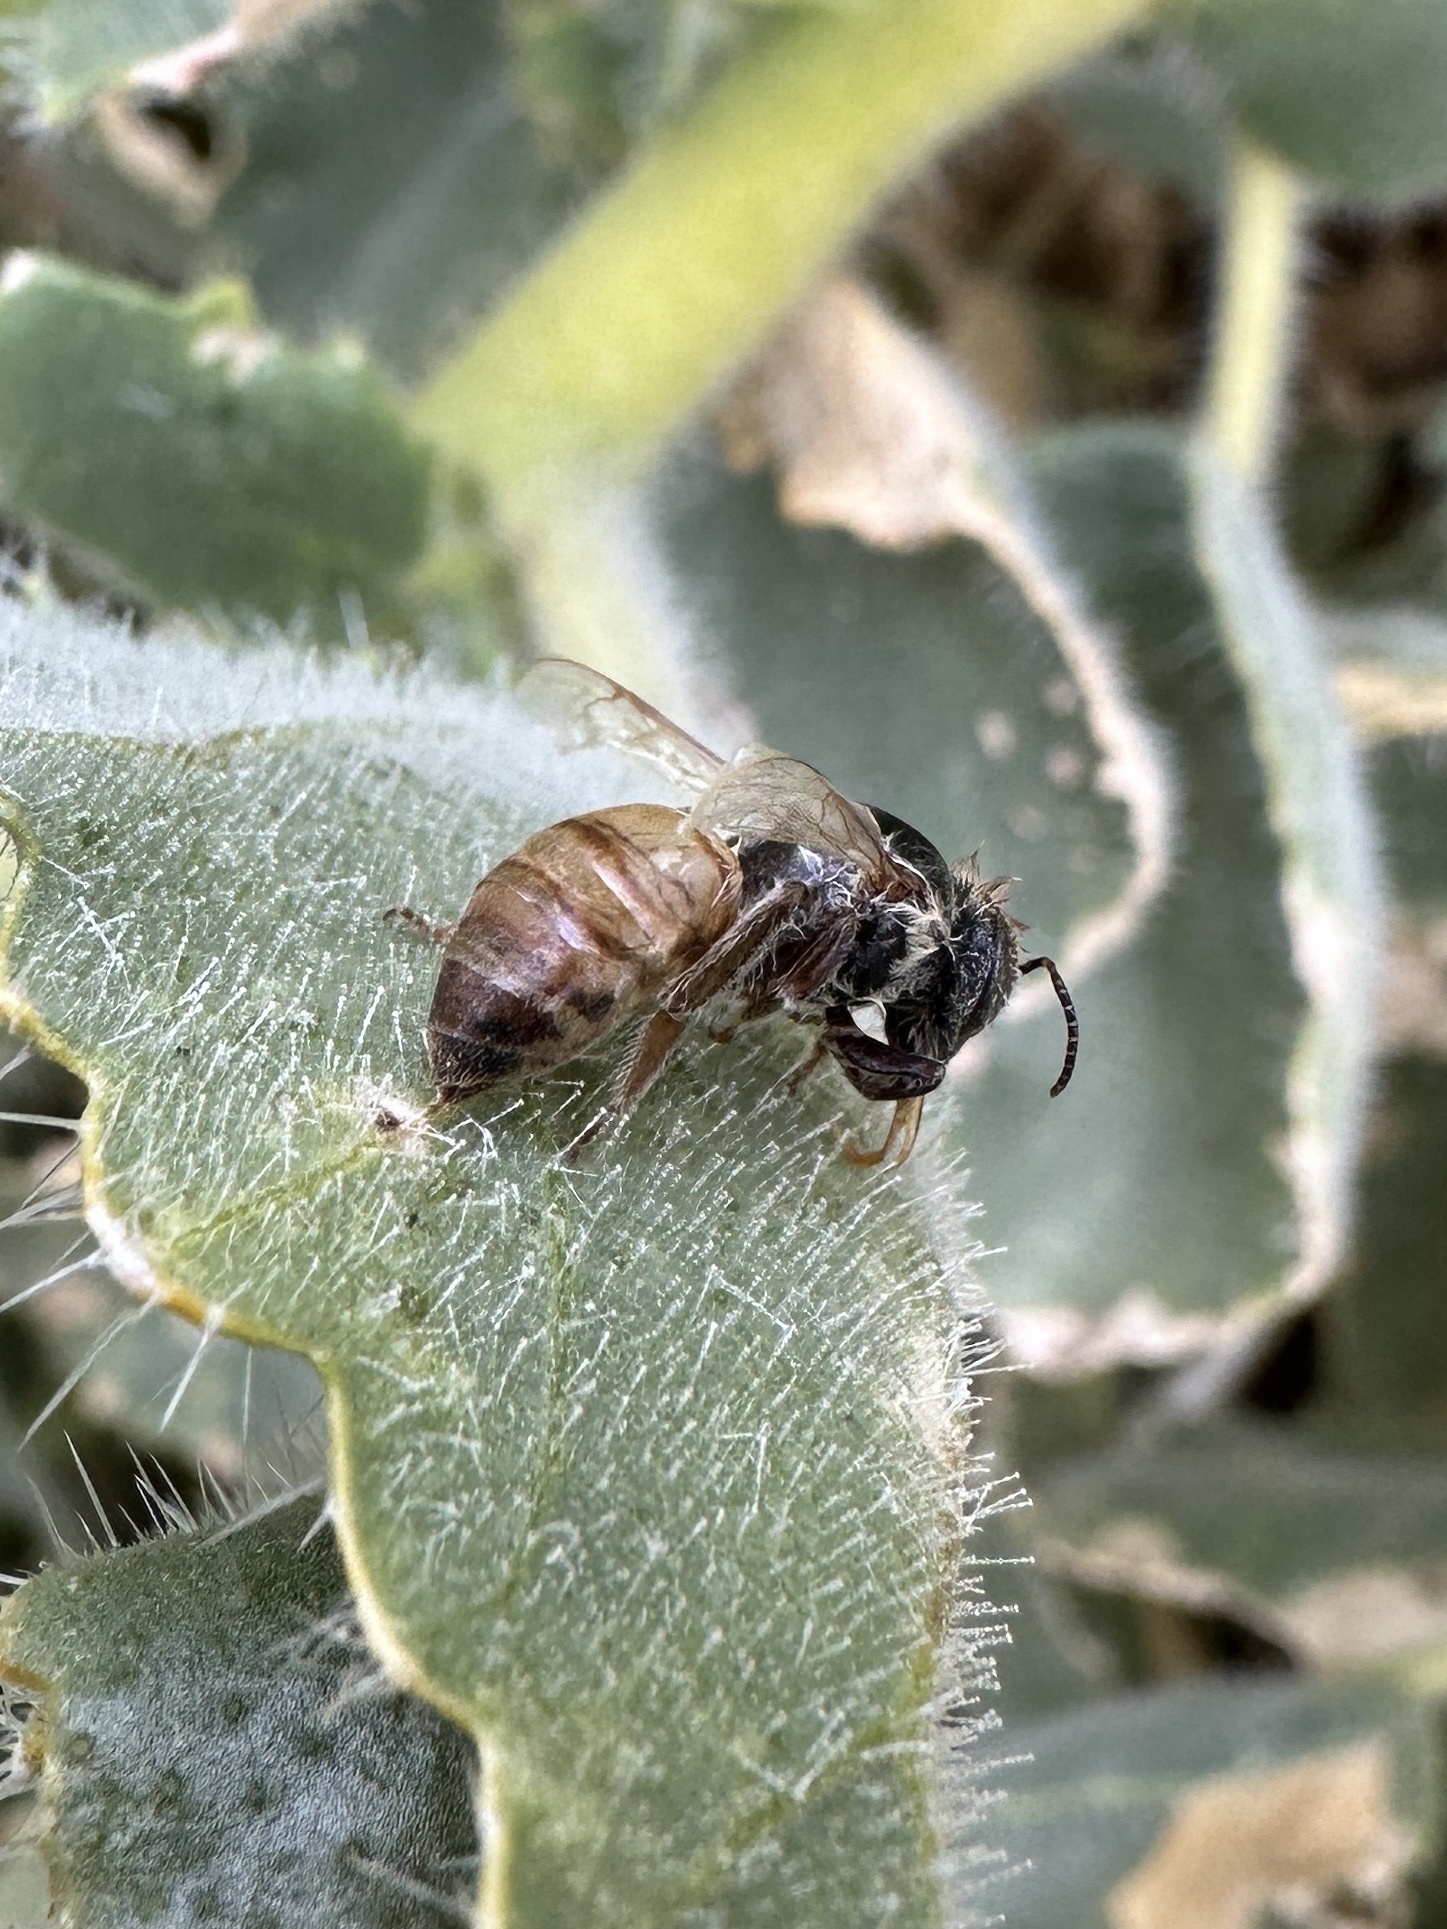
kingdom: Animalia
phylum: Arthropoda
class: Insecta
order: Hymenoptera
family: Apidae
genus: Apis
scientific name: Apis mellifera
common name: Honey bee
